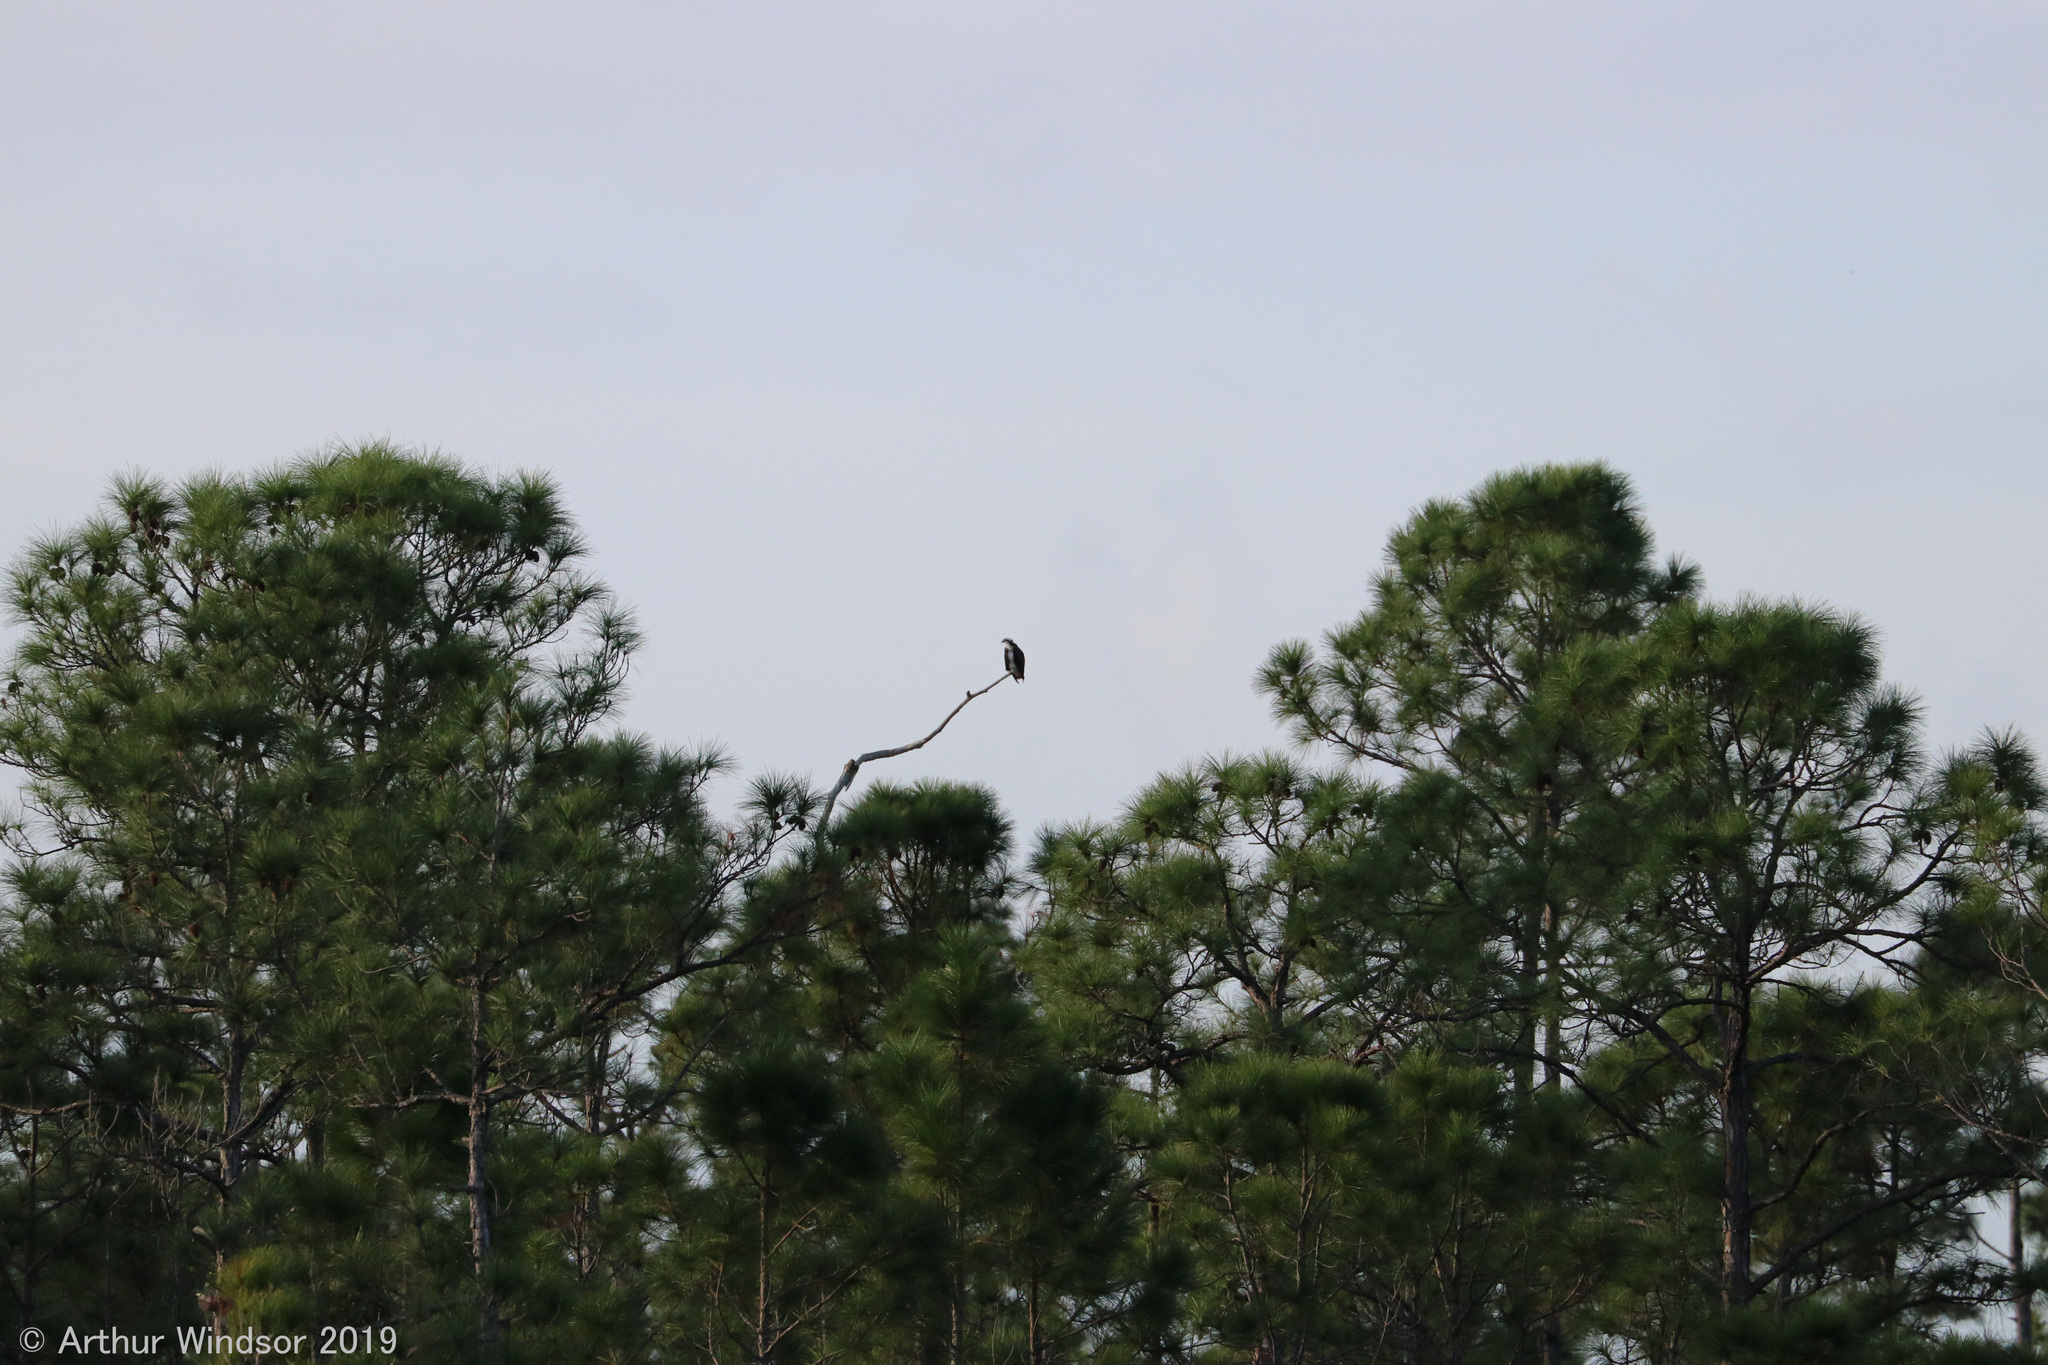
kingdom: Animalia
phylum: Chordata
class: Aves
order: Accipitriformes
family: Pandionidae
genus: Pandion
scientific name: Pandion haliaetus
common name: Osprey
